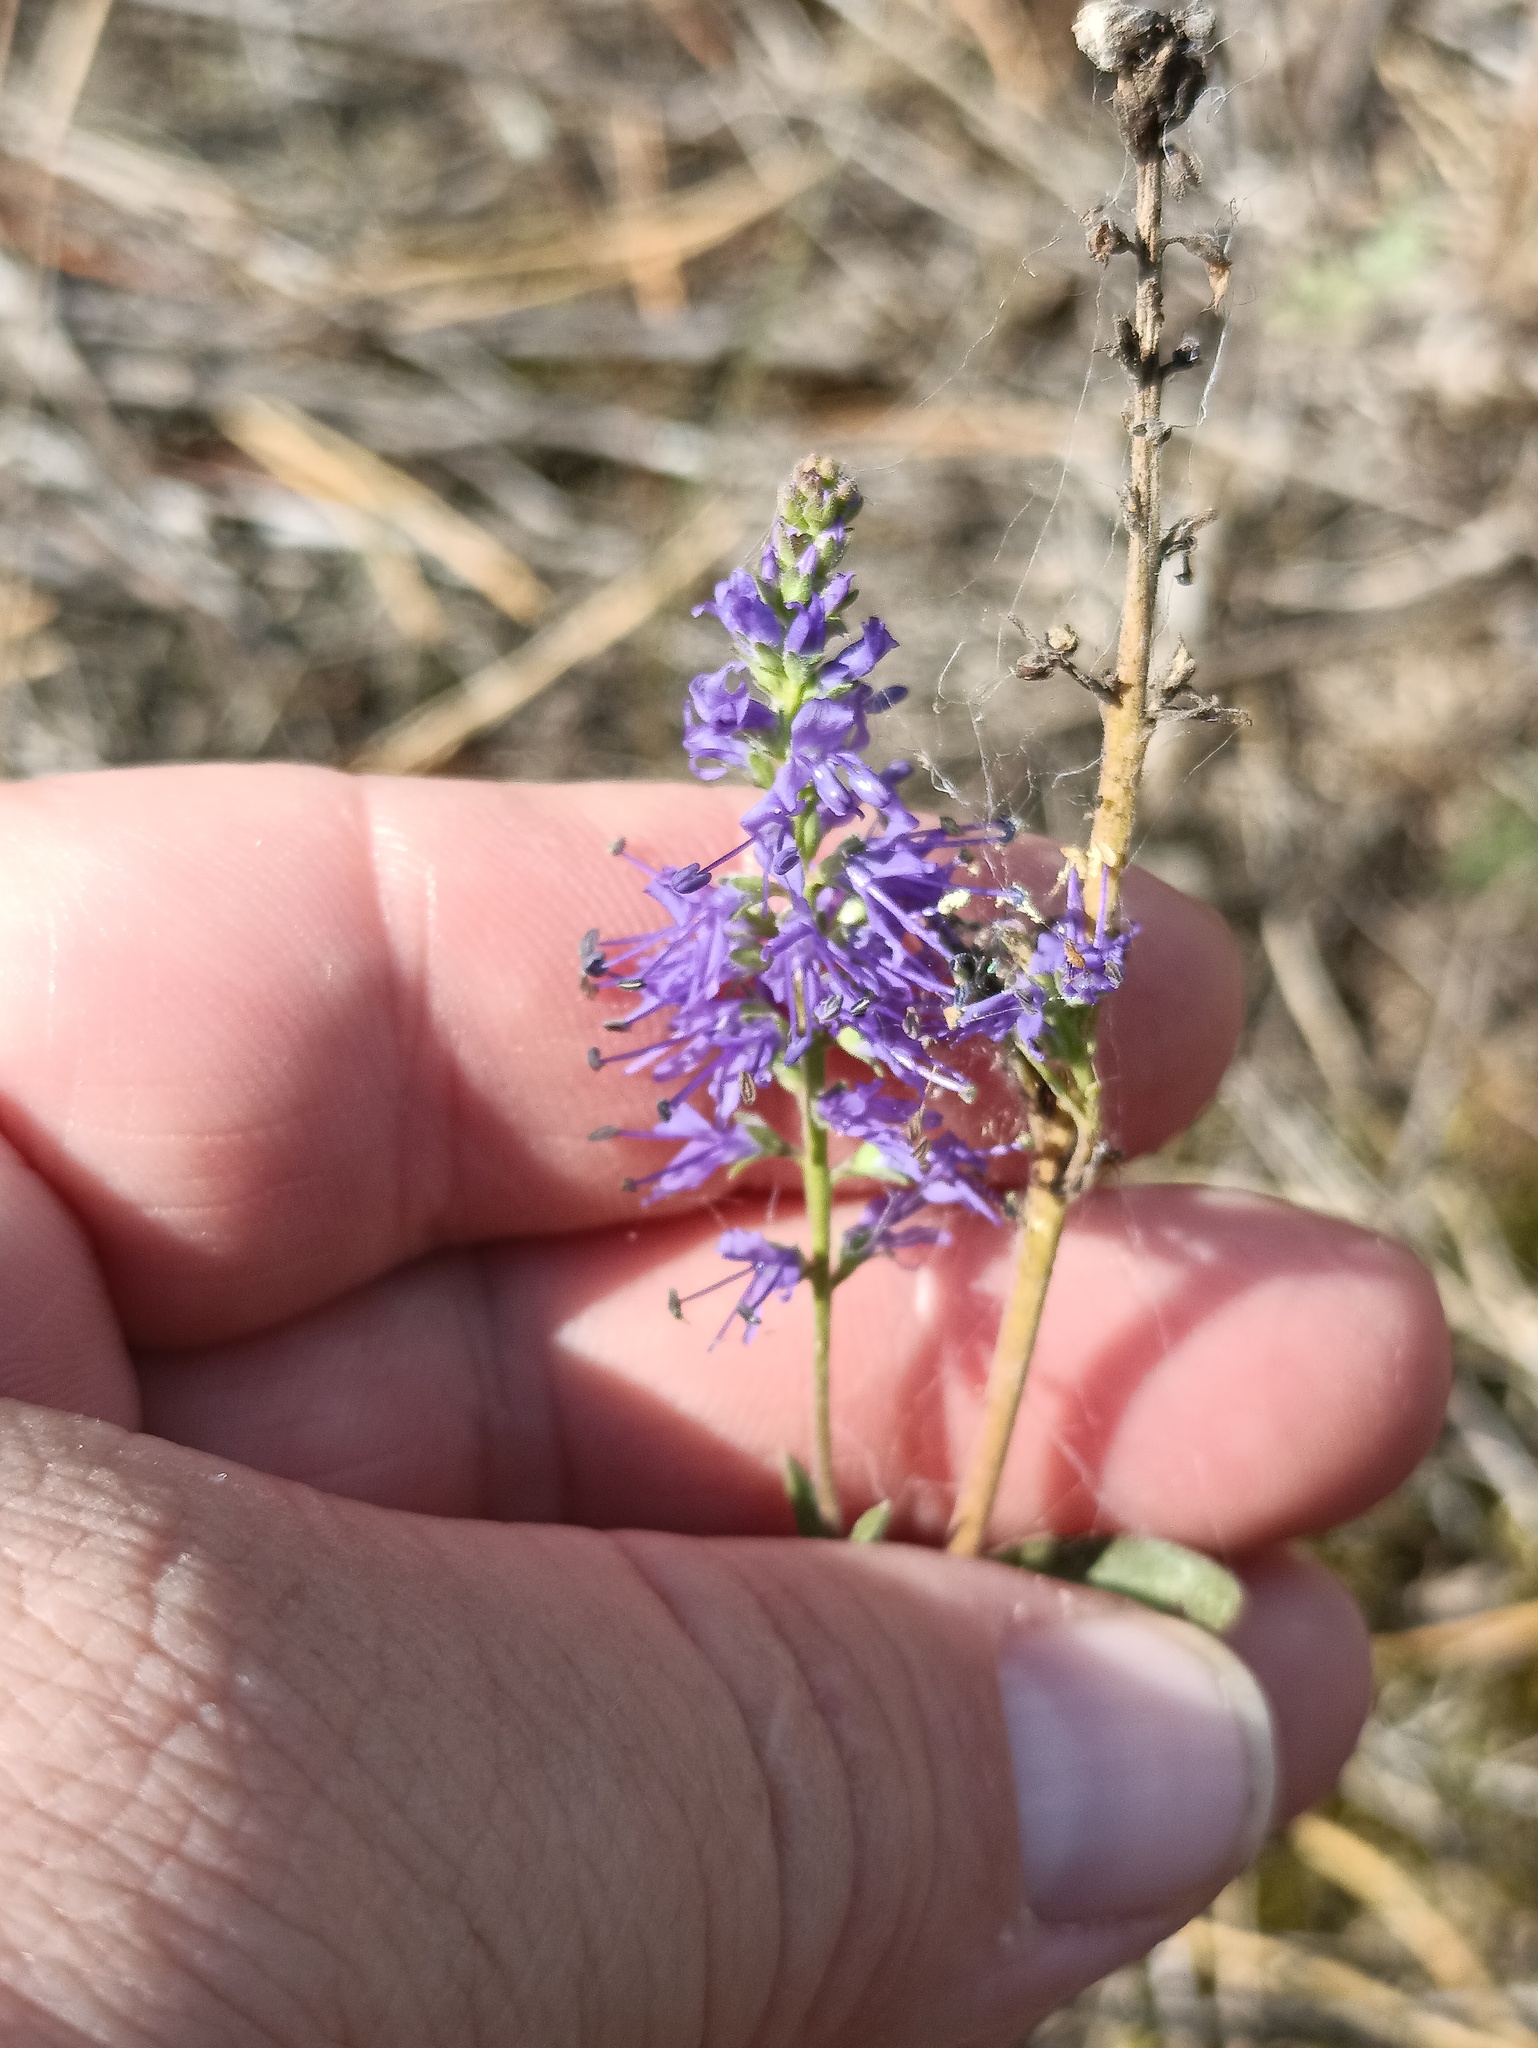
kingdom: Plantae
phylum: Tracheophyta
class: Magnoliopsida
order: Lamiales
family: Plantaginaceae
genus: Veronica
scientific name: Veronica spicata
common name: Spiked speedwell
